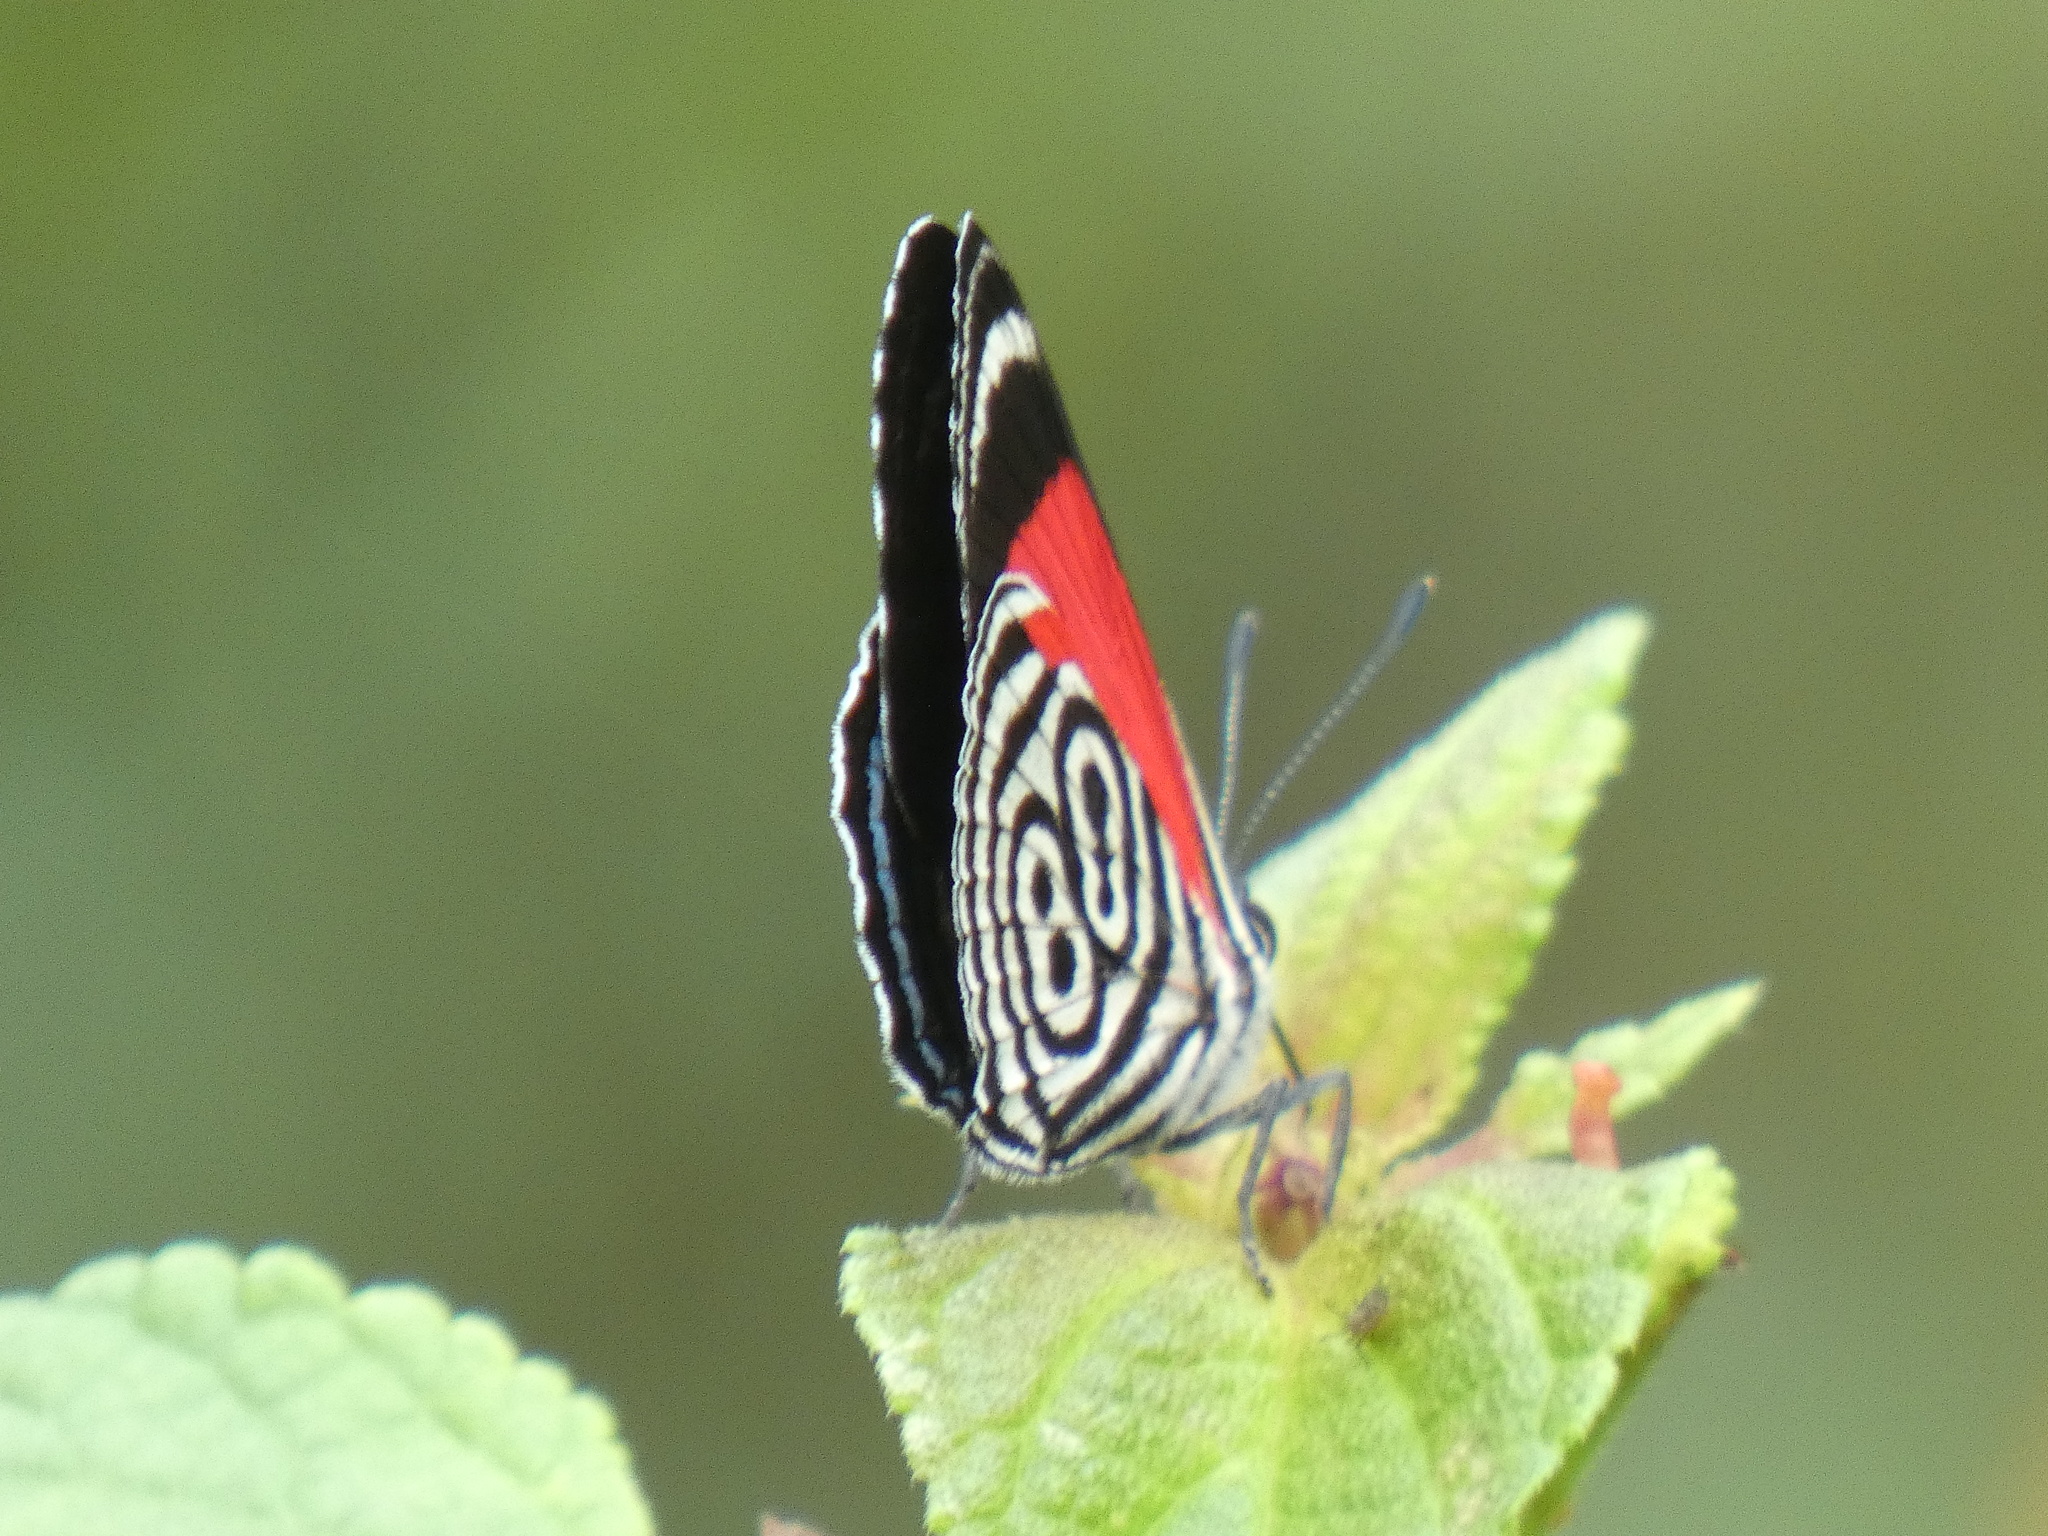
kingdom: Animalia
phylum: Arthropoda
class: Insecta
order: Lepidoptera
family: Nymphalidae
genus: Diaethria
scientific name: Diaethria clymena
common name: Widespread eighty-eight
